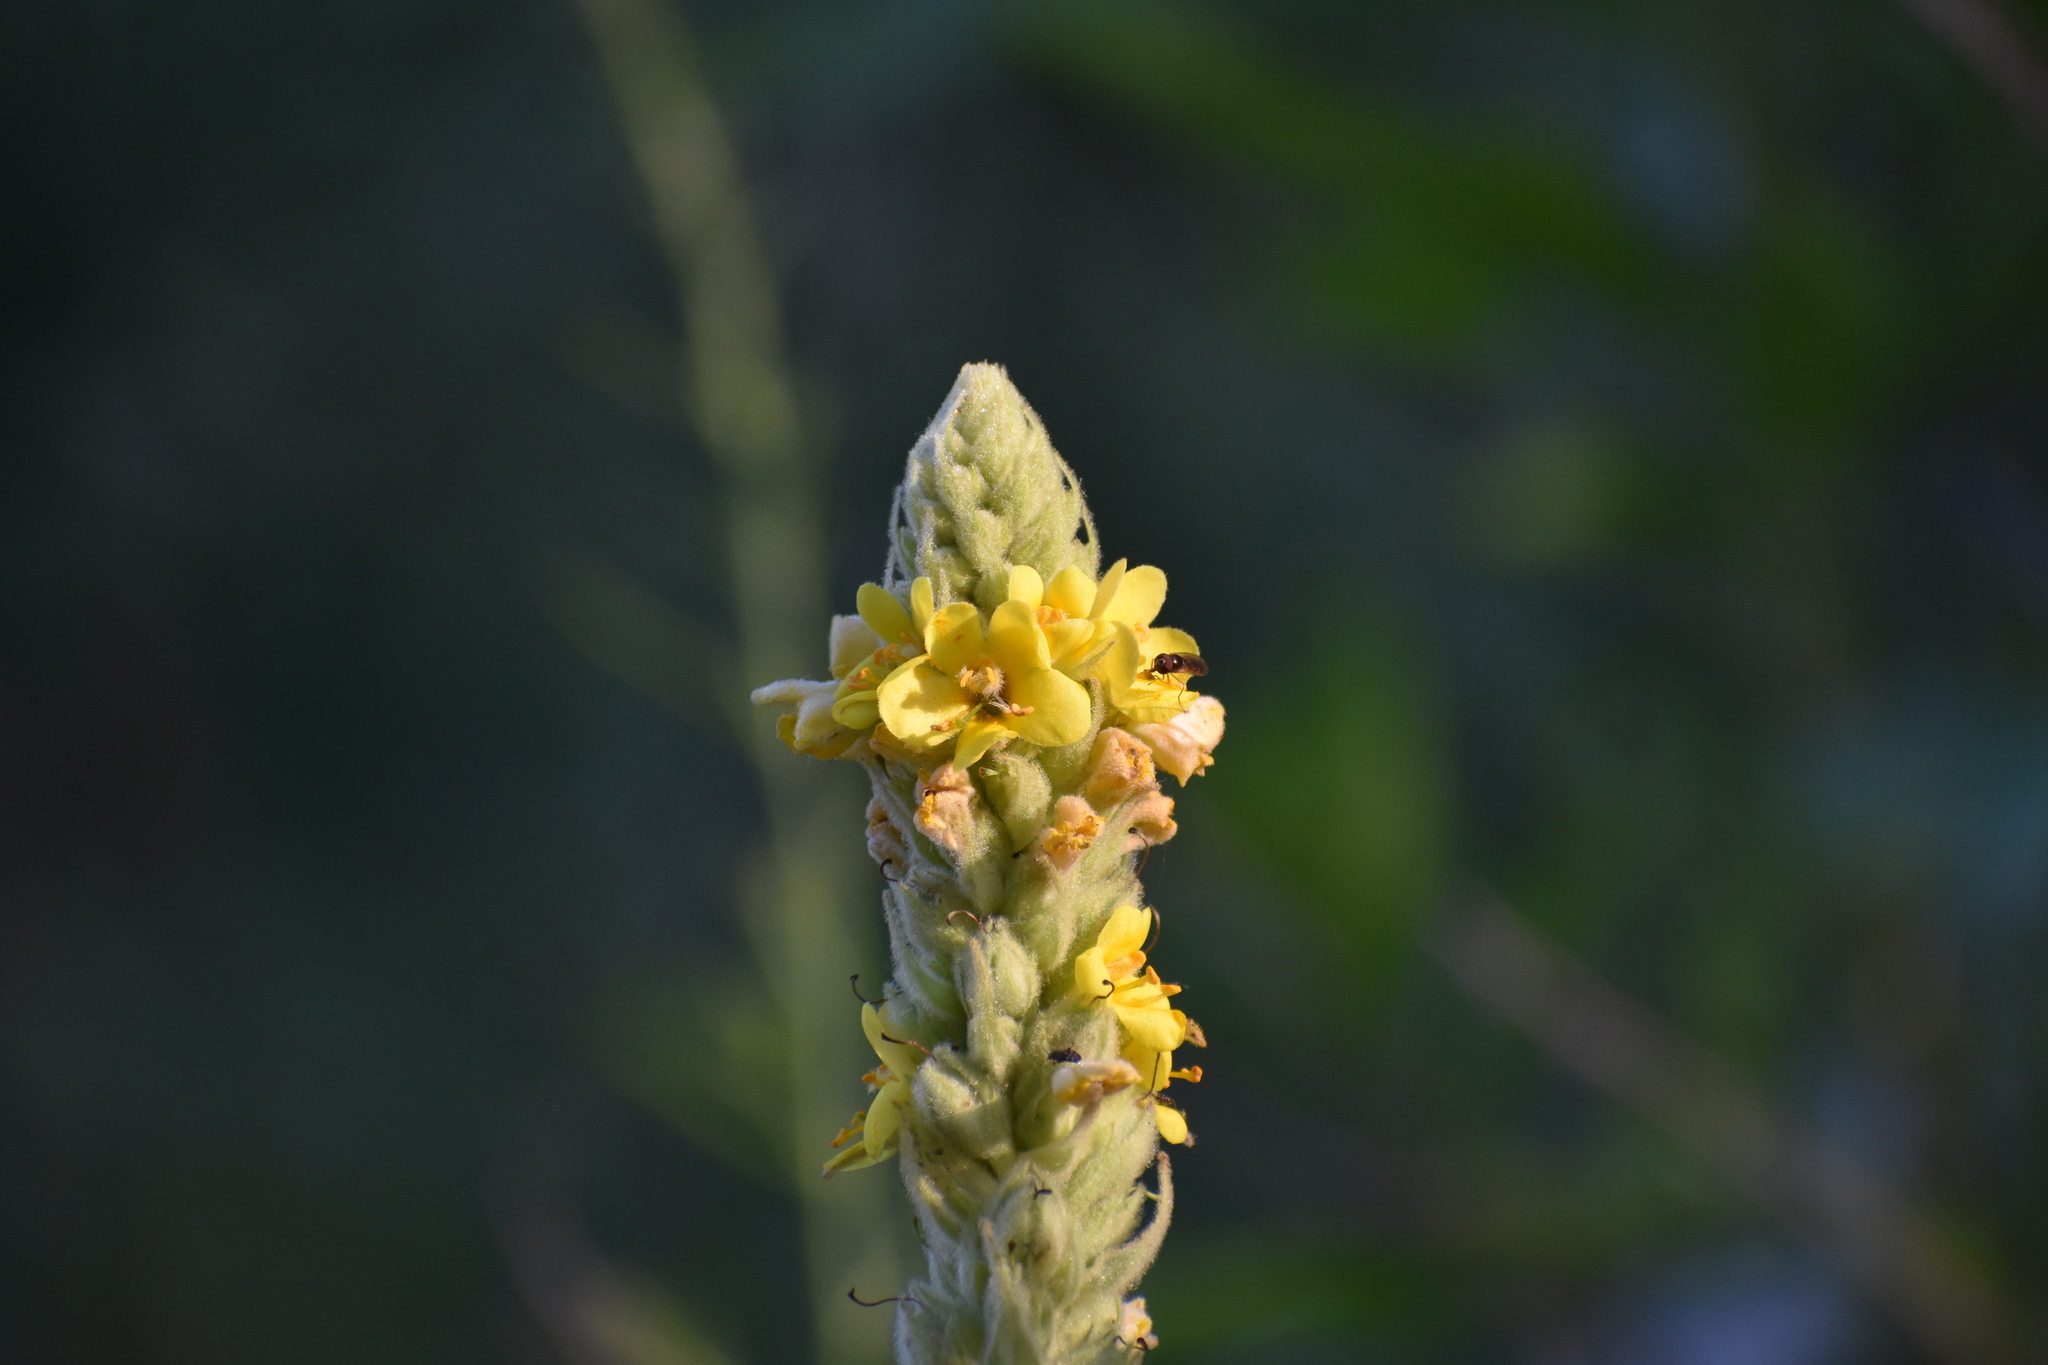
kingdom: Plantae
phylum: Tracheophyta
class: Magnoliopsida
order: Lamiales
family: Scrophulariaceae
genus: Verbascum
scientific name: Verbascum thapsus
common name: Common mullein
